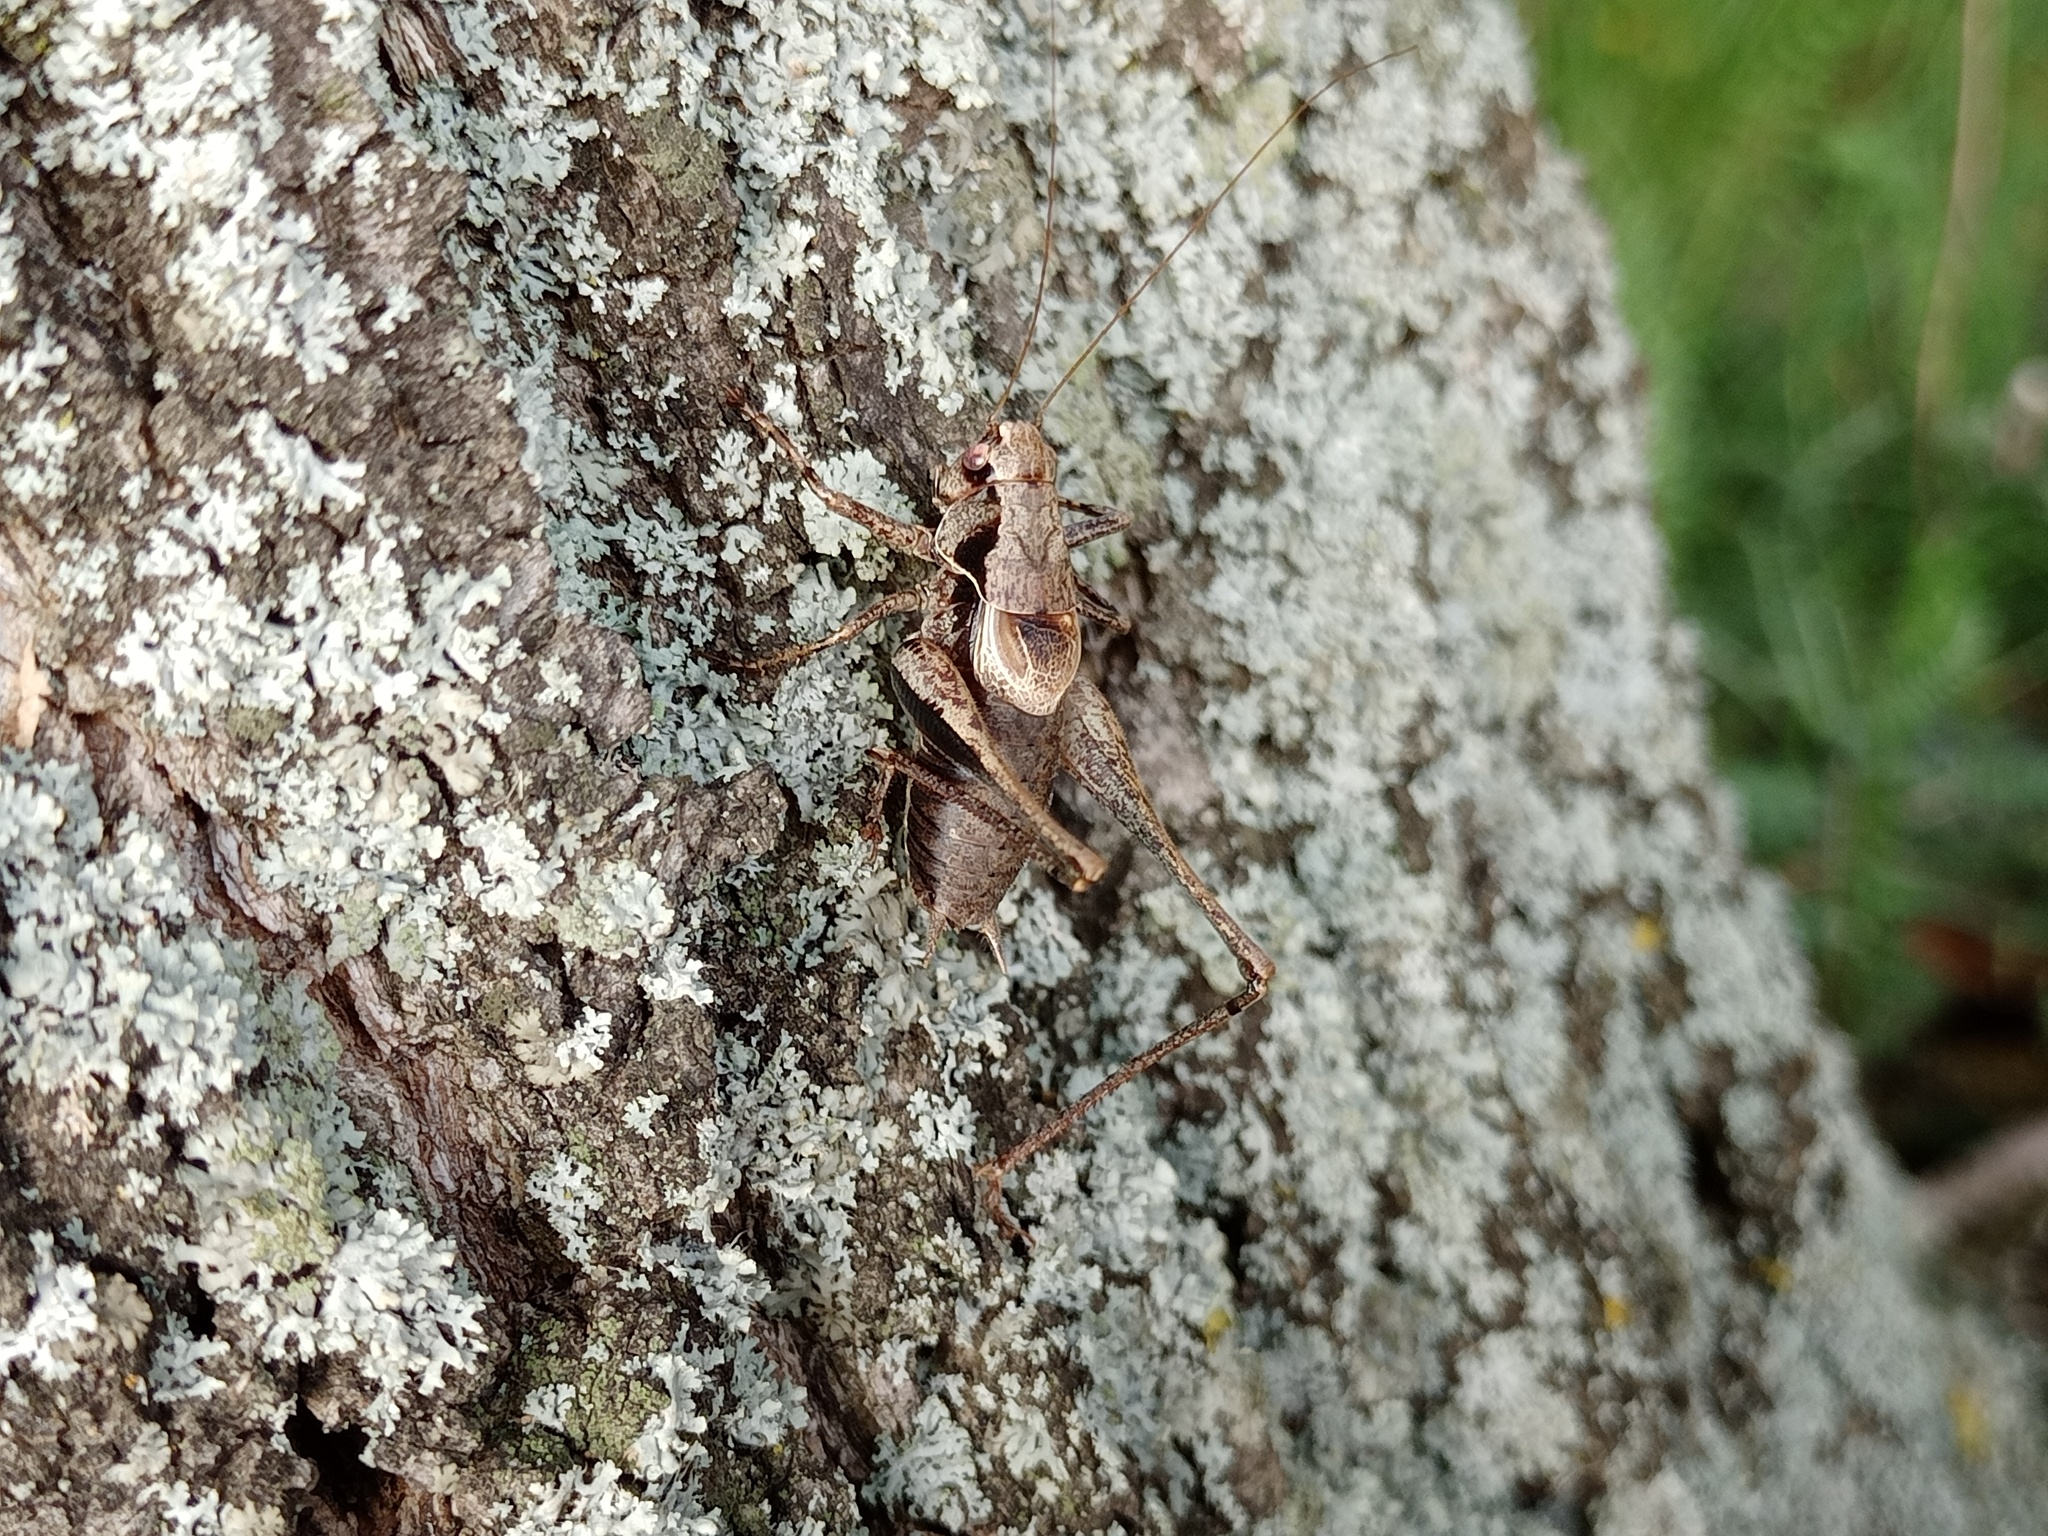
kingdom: Animalia
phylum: Arthropoda
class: Insecta
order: Orthoptera
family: Tettigoniidae
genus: Pholidoptera
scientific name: Pholidoptera griseoaptera
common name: Dark bush-cricket
